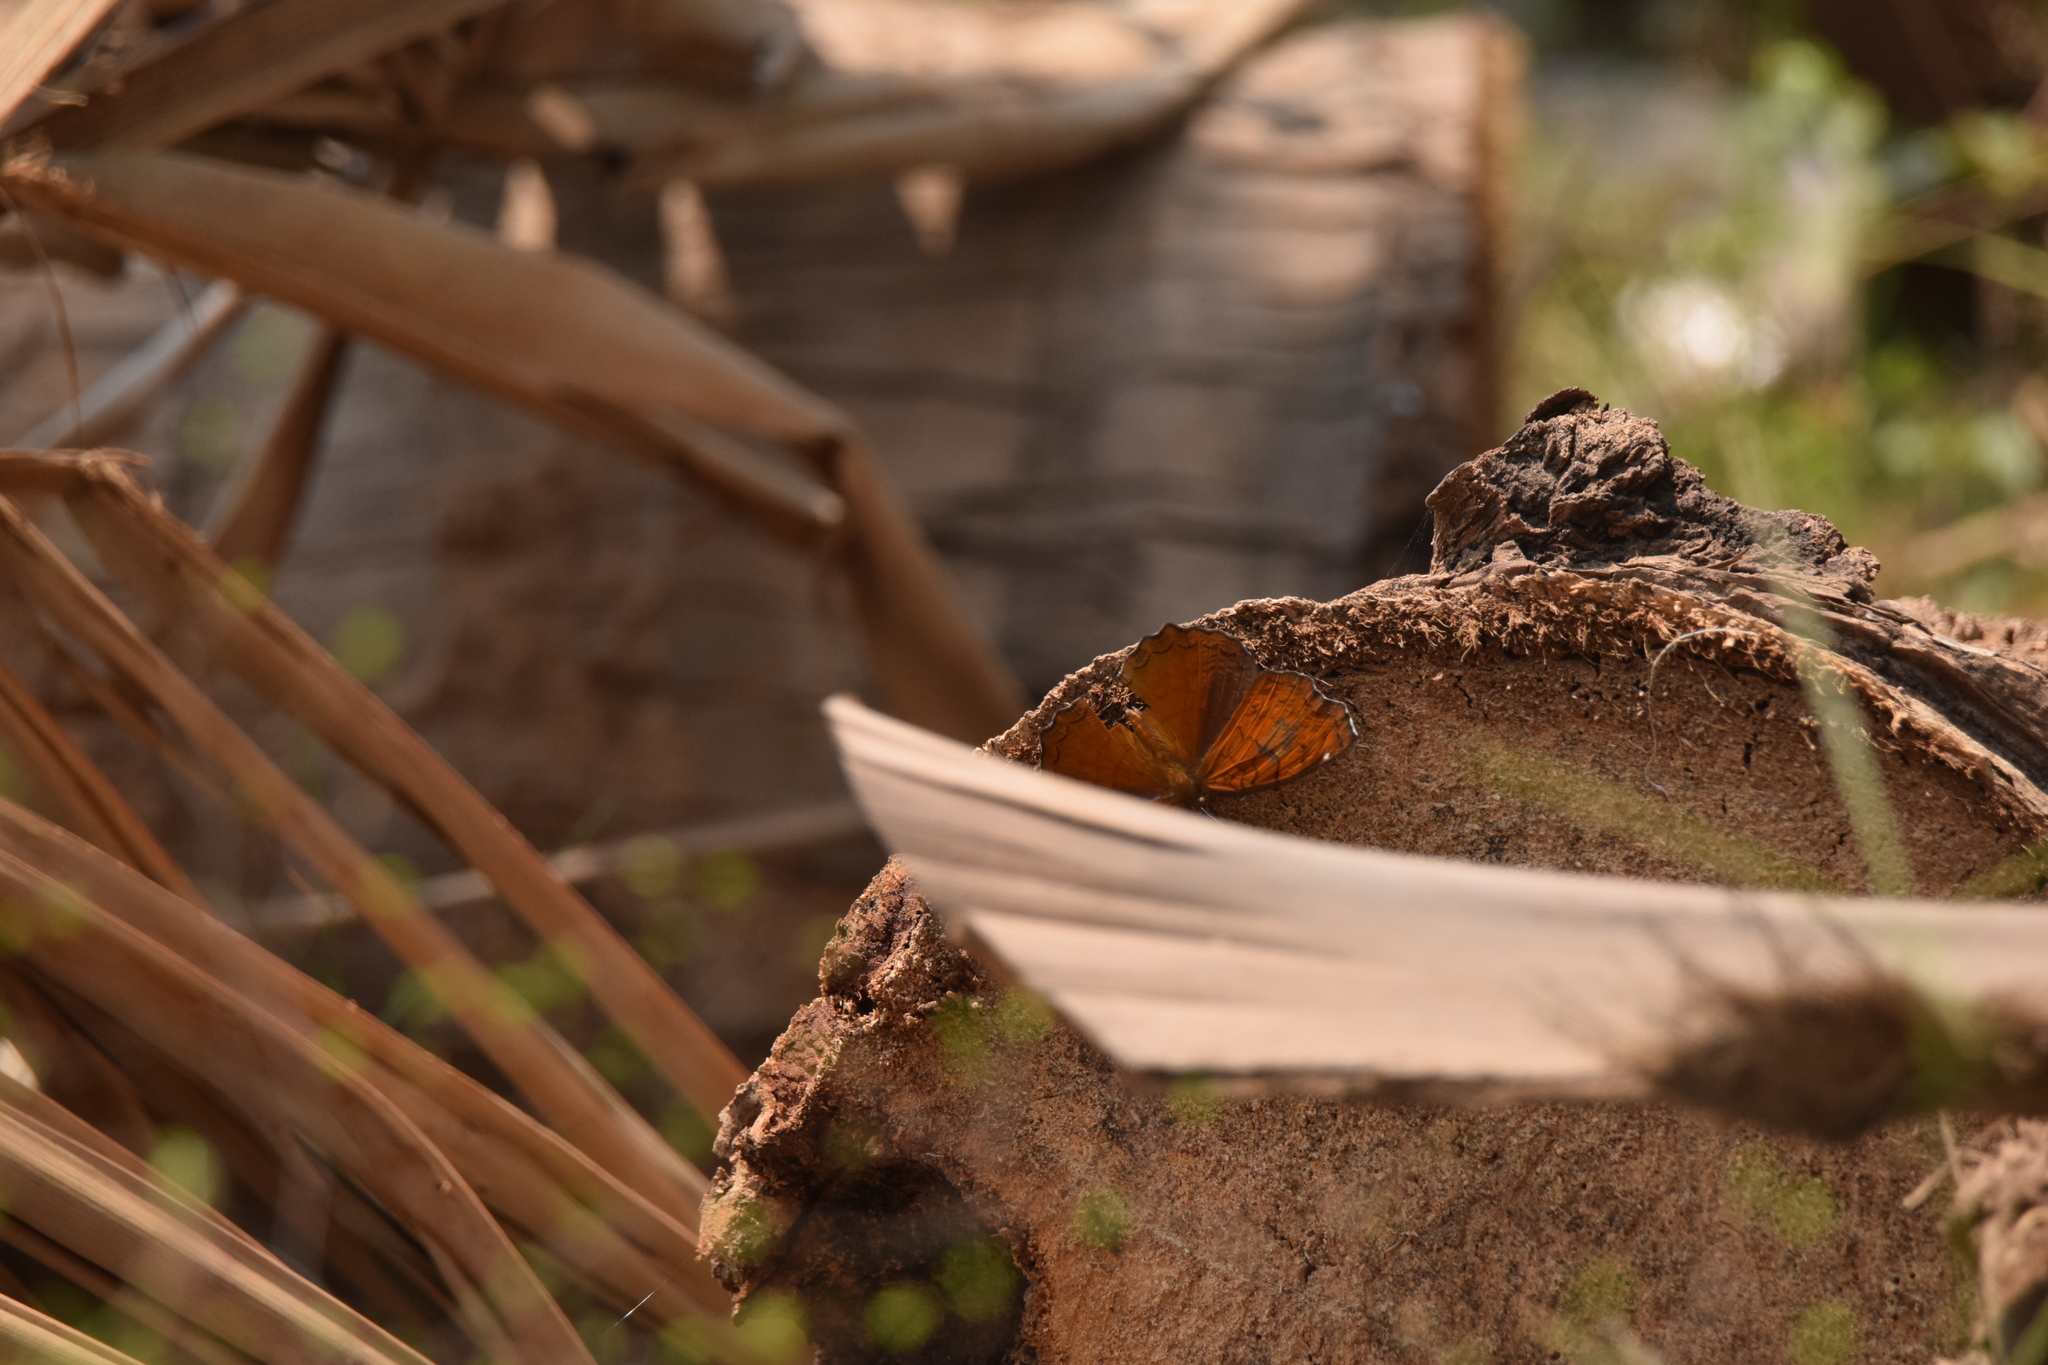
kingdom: Animalia
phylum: Arthropoda
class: Insecta
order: Lepidoptera
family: Nymphalidae
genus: Ariadne
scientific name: Ariadne ariadne
